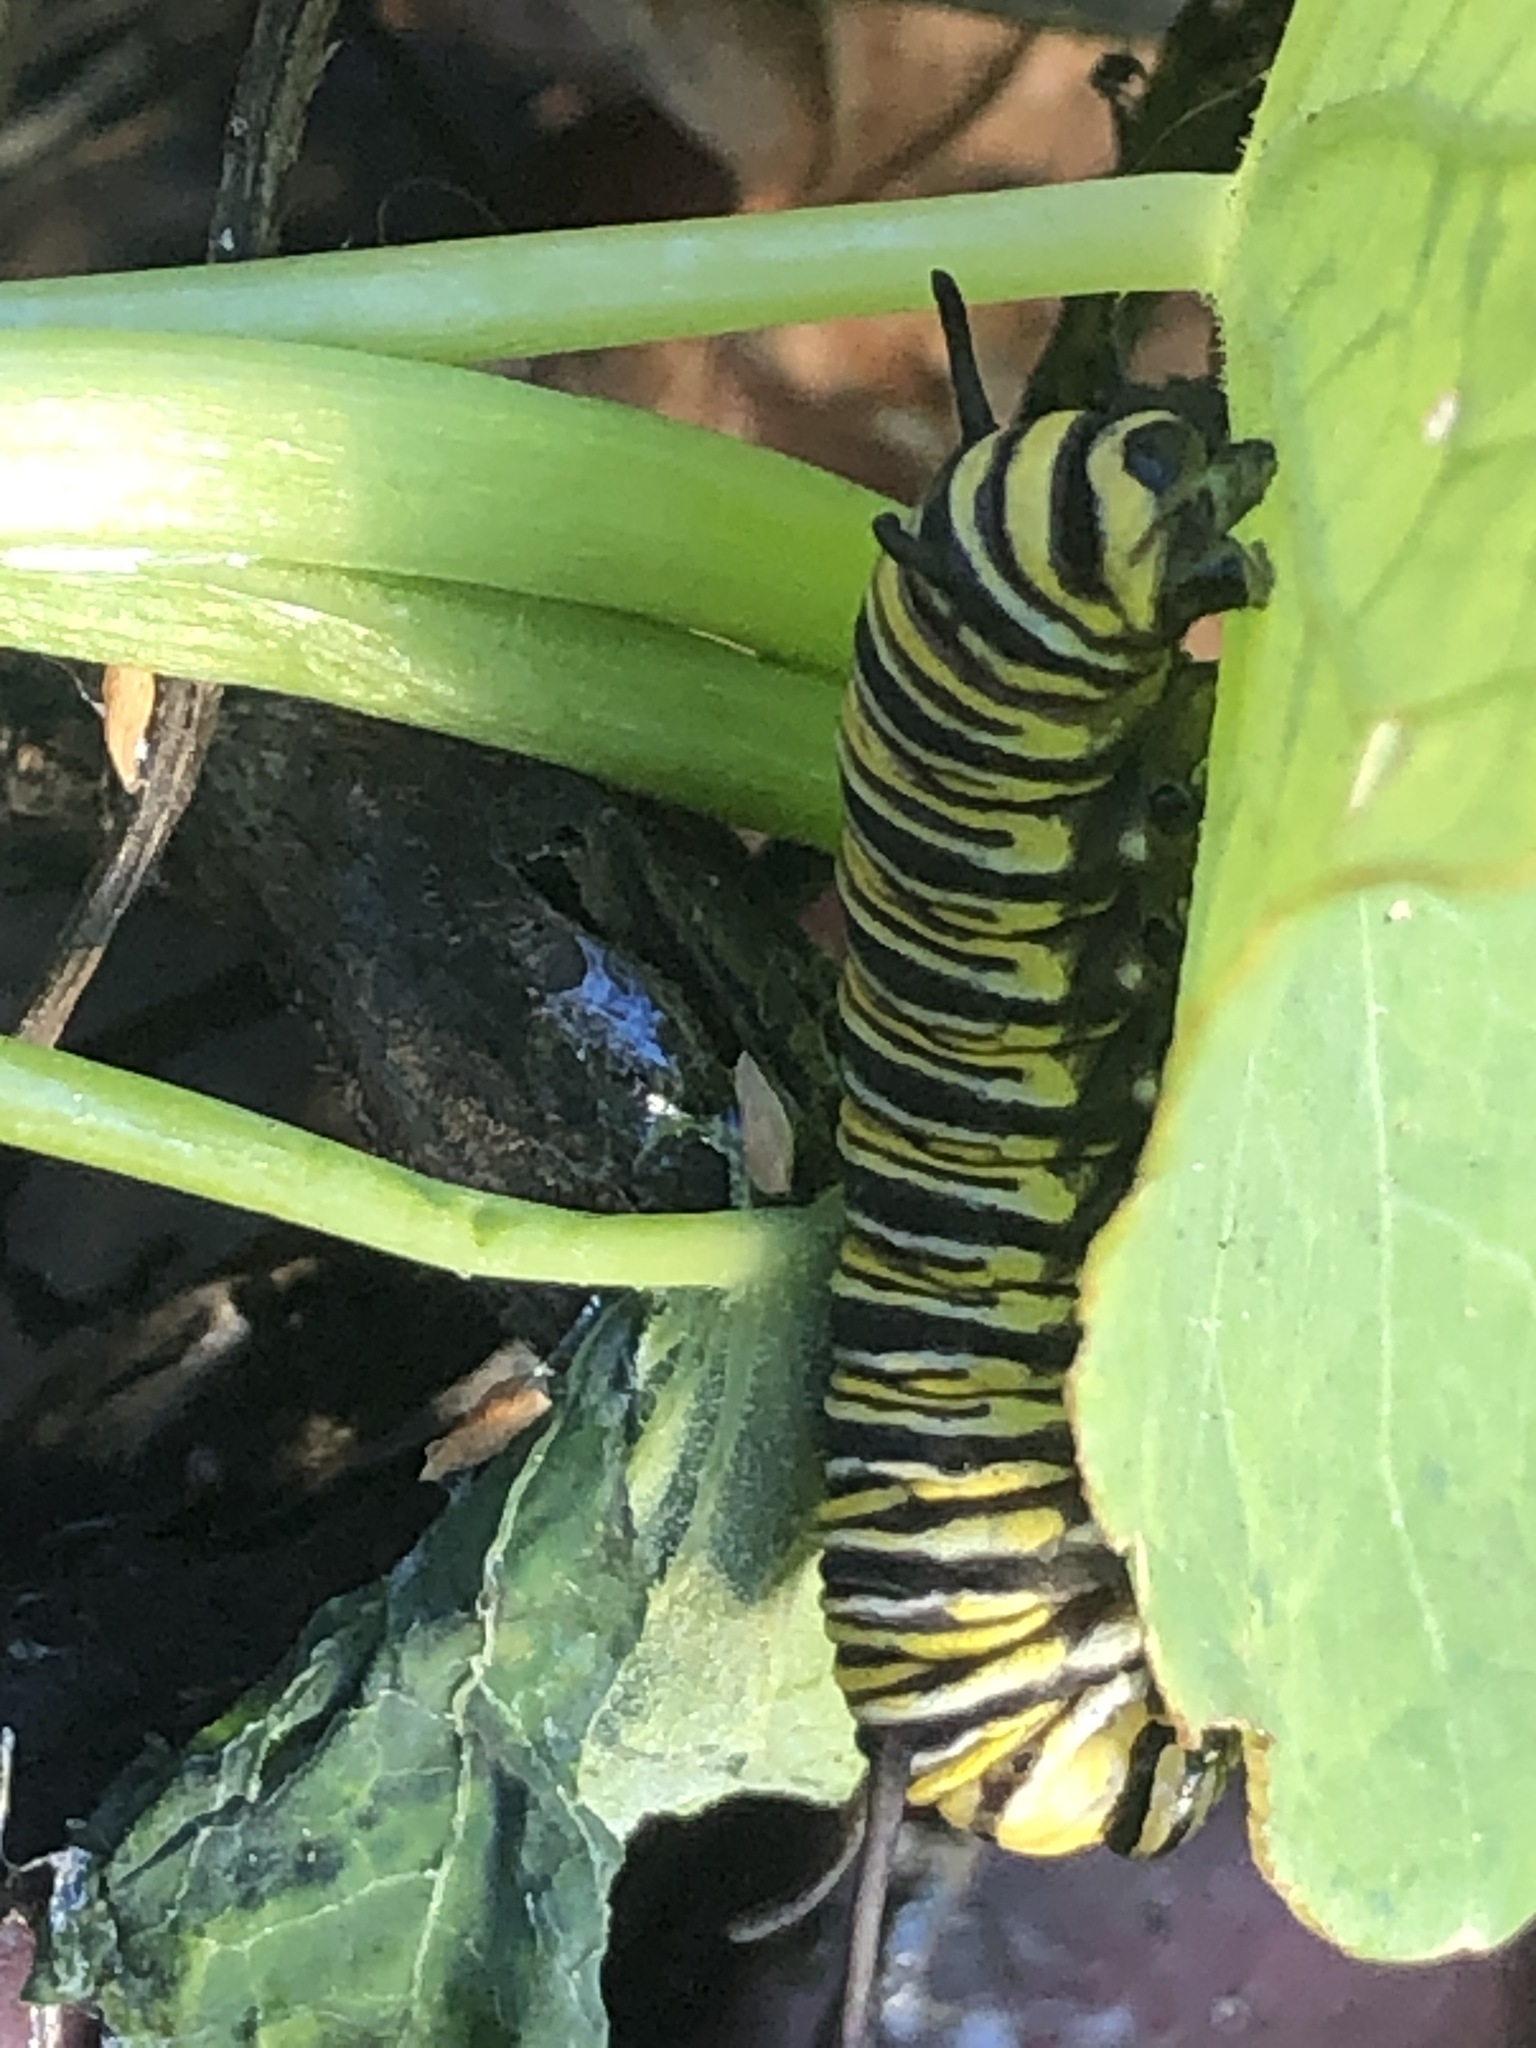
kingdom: Animalia
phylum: Arthropoda
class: Insecta
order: Lepidoptera
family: Nymphalidae
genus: Danaus
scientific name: Danaus plexippus
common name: Monarch
